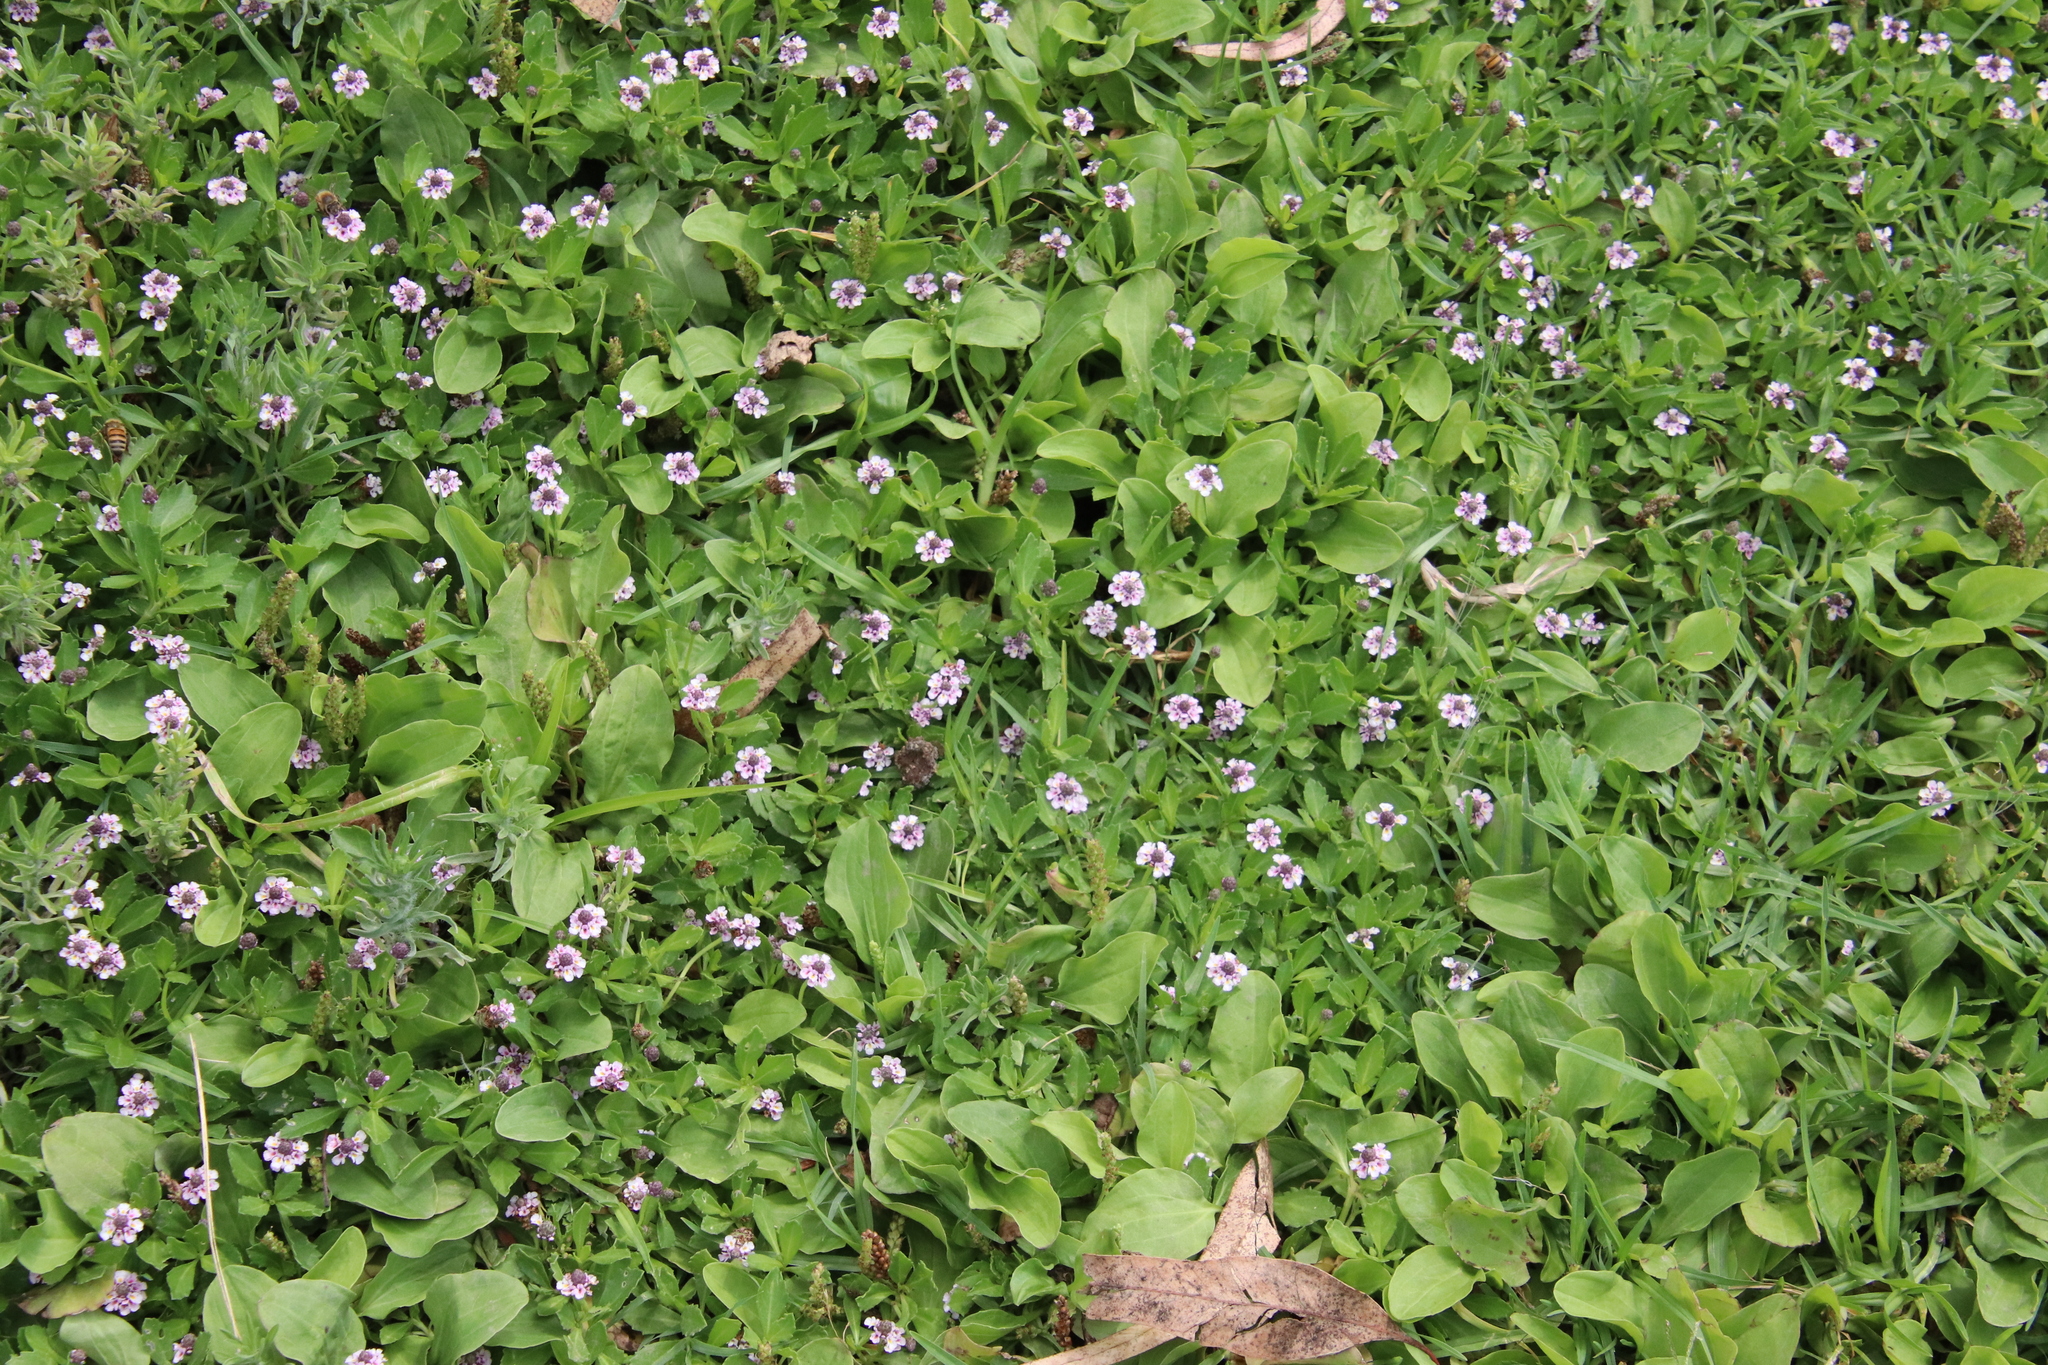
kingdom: Plantae
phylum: Tracheophyta
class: Magnoliopsida
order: Lamiales
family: Verbenaceae
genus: Phyla
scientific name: Phyla nodiflora
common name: Frogfruit
